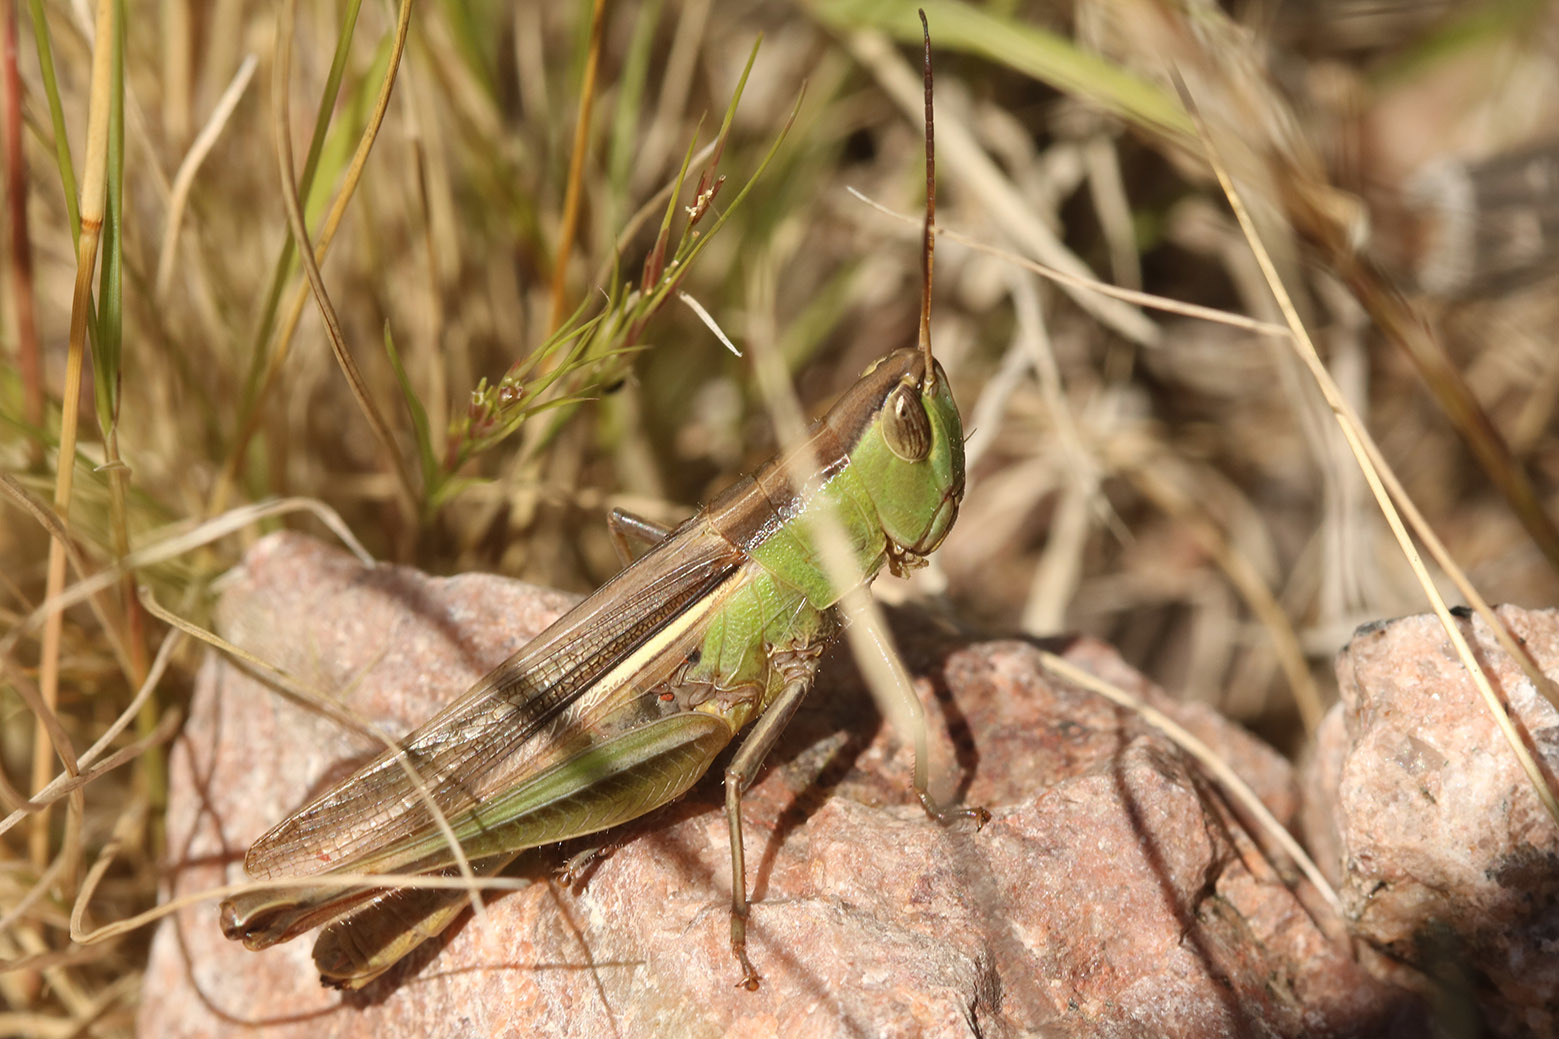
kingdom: Animalia
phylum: Arthropoda
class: Insecta
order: Orthoptera
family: Acrididae
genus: Staurorhectus
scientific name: Staurorhectus longicornis
